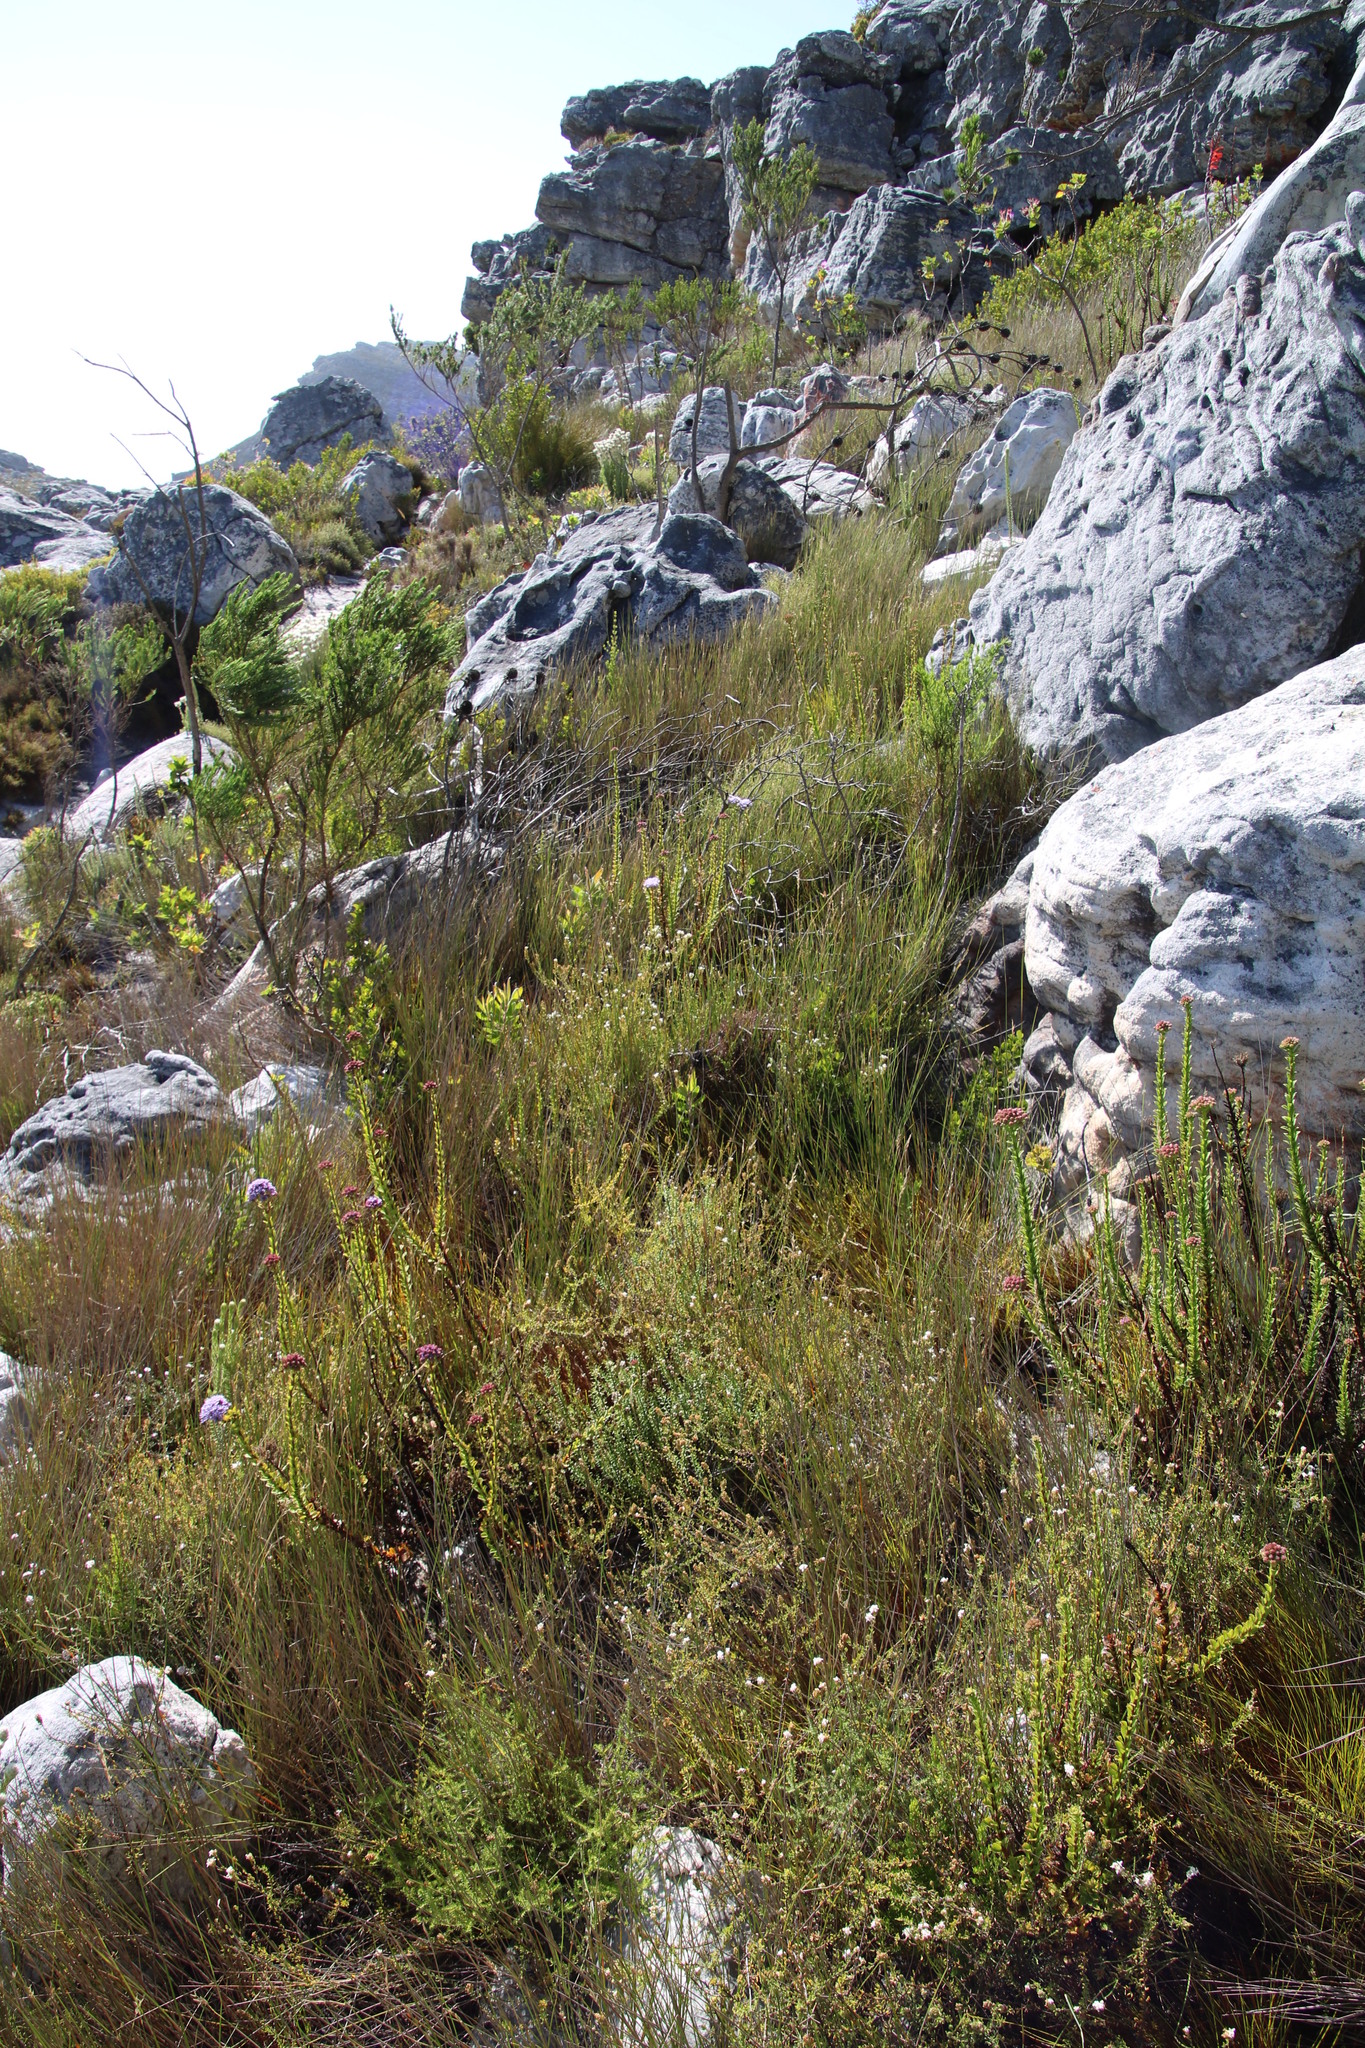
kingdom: Plantae
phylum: Tracheophyta
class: Magnoliopsida
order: Lamiales
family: Scrophulariaceae
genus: Selago
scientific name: Selago levynsiae
